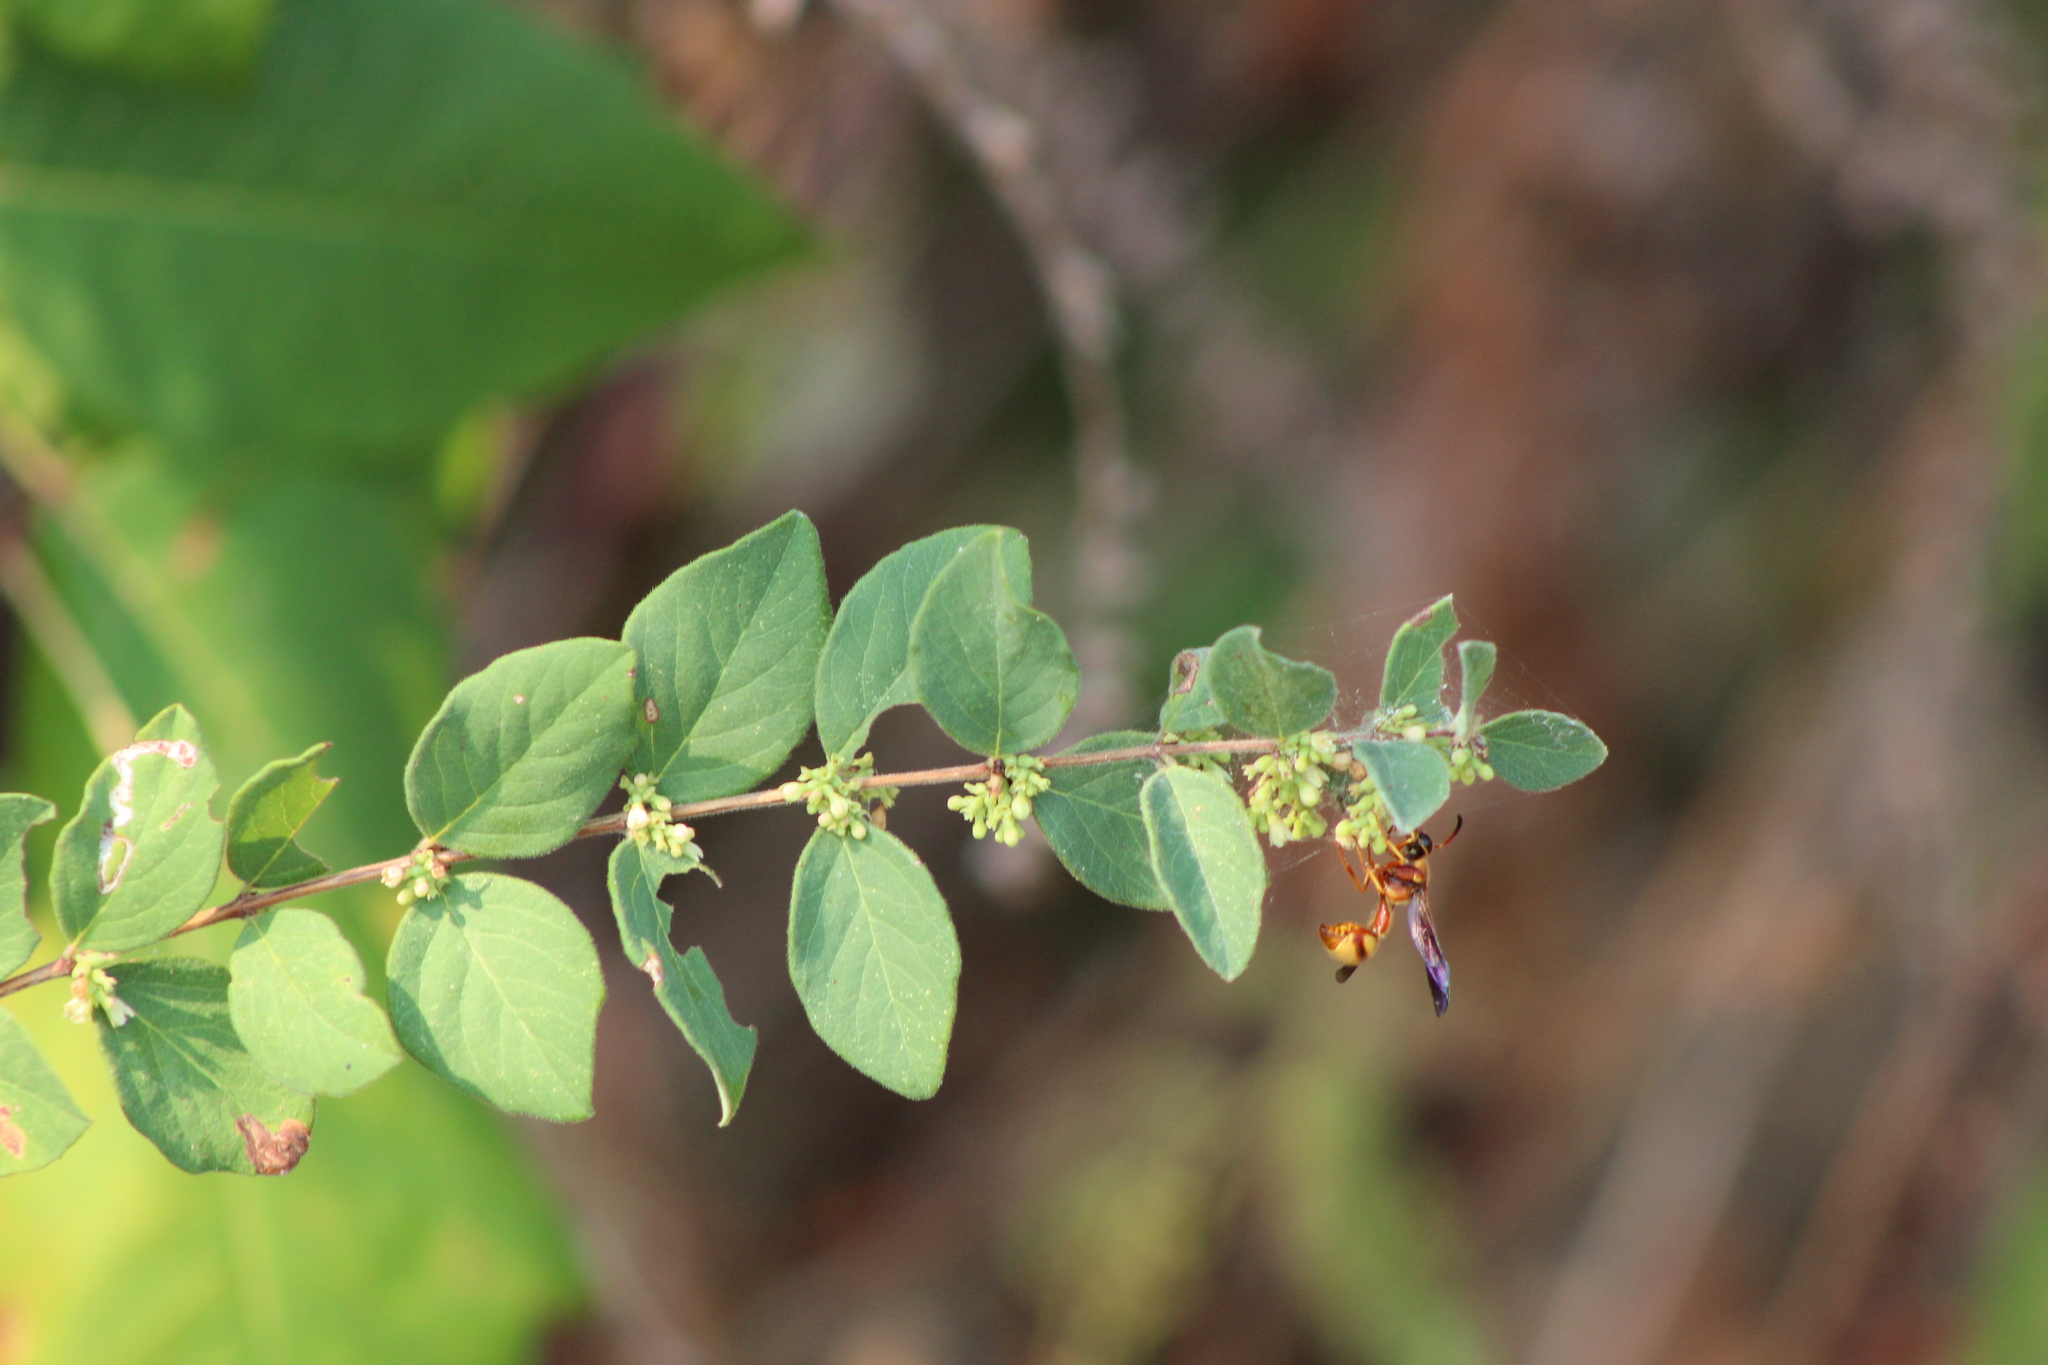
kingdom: Animalia
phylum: Arthropoda
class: Insecta
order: Hymenoptera
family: Vespidae
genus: Eumenes
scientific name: Eumenes bollii
